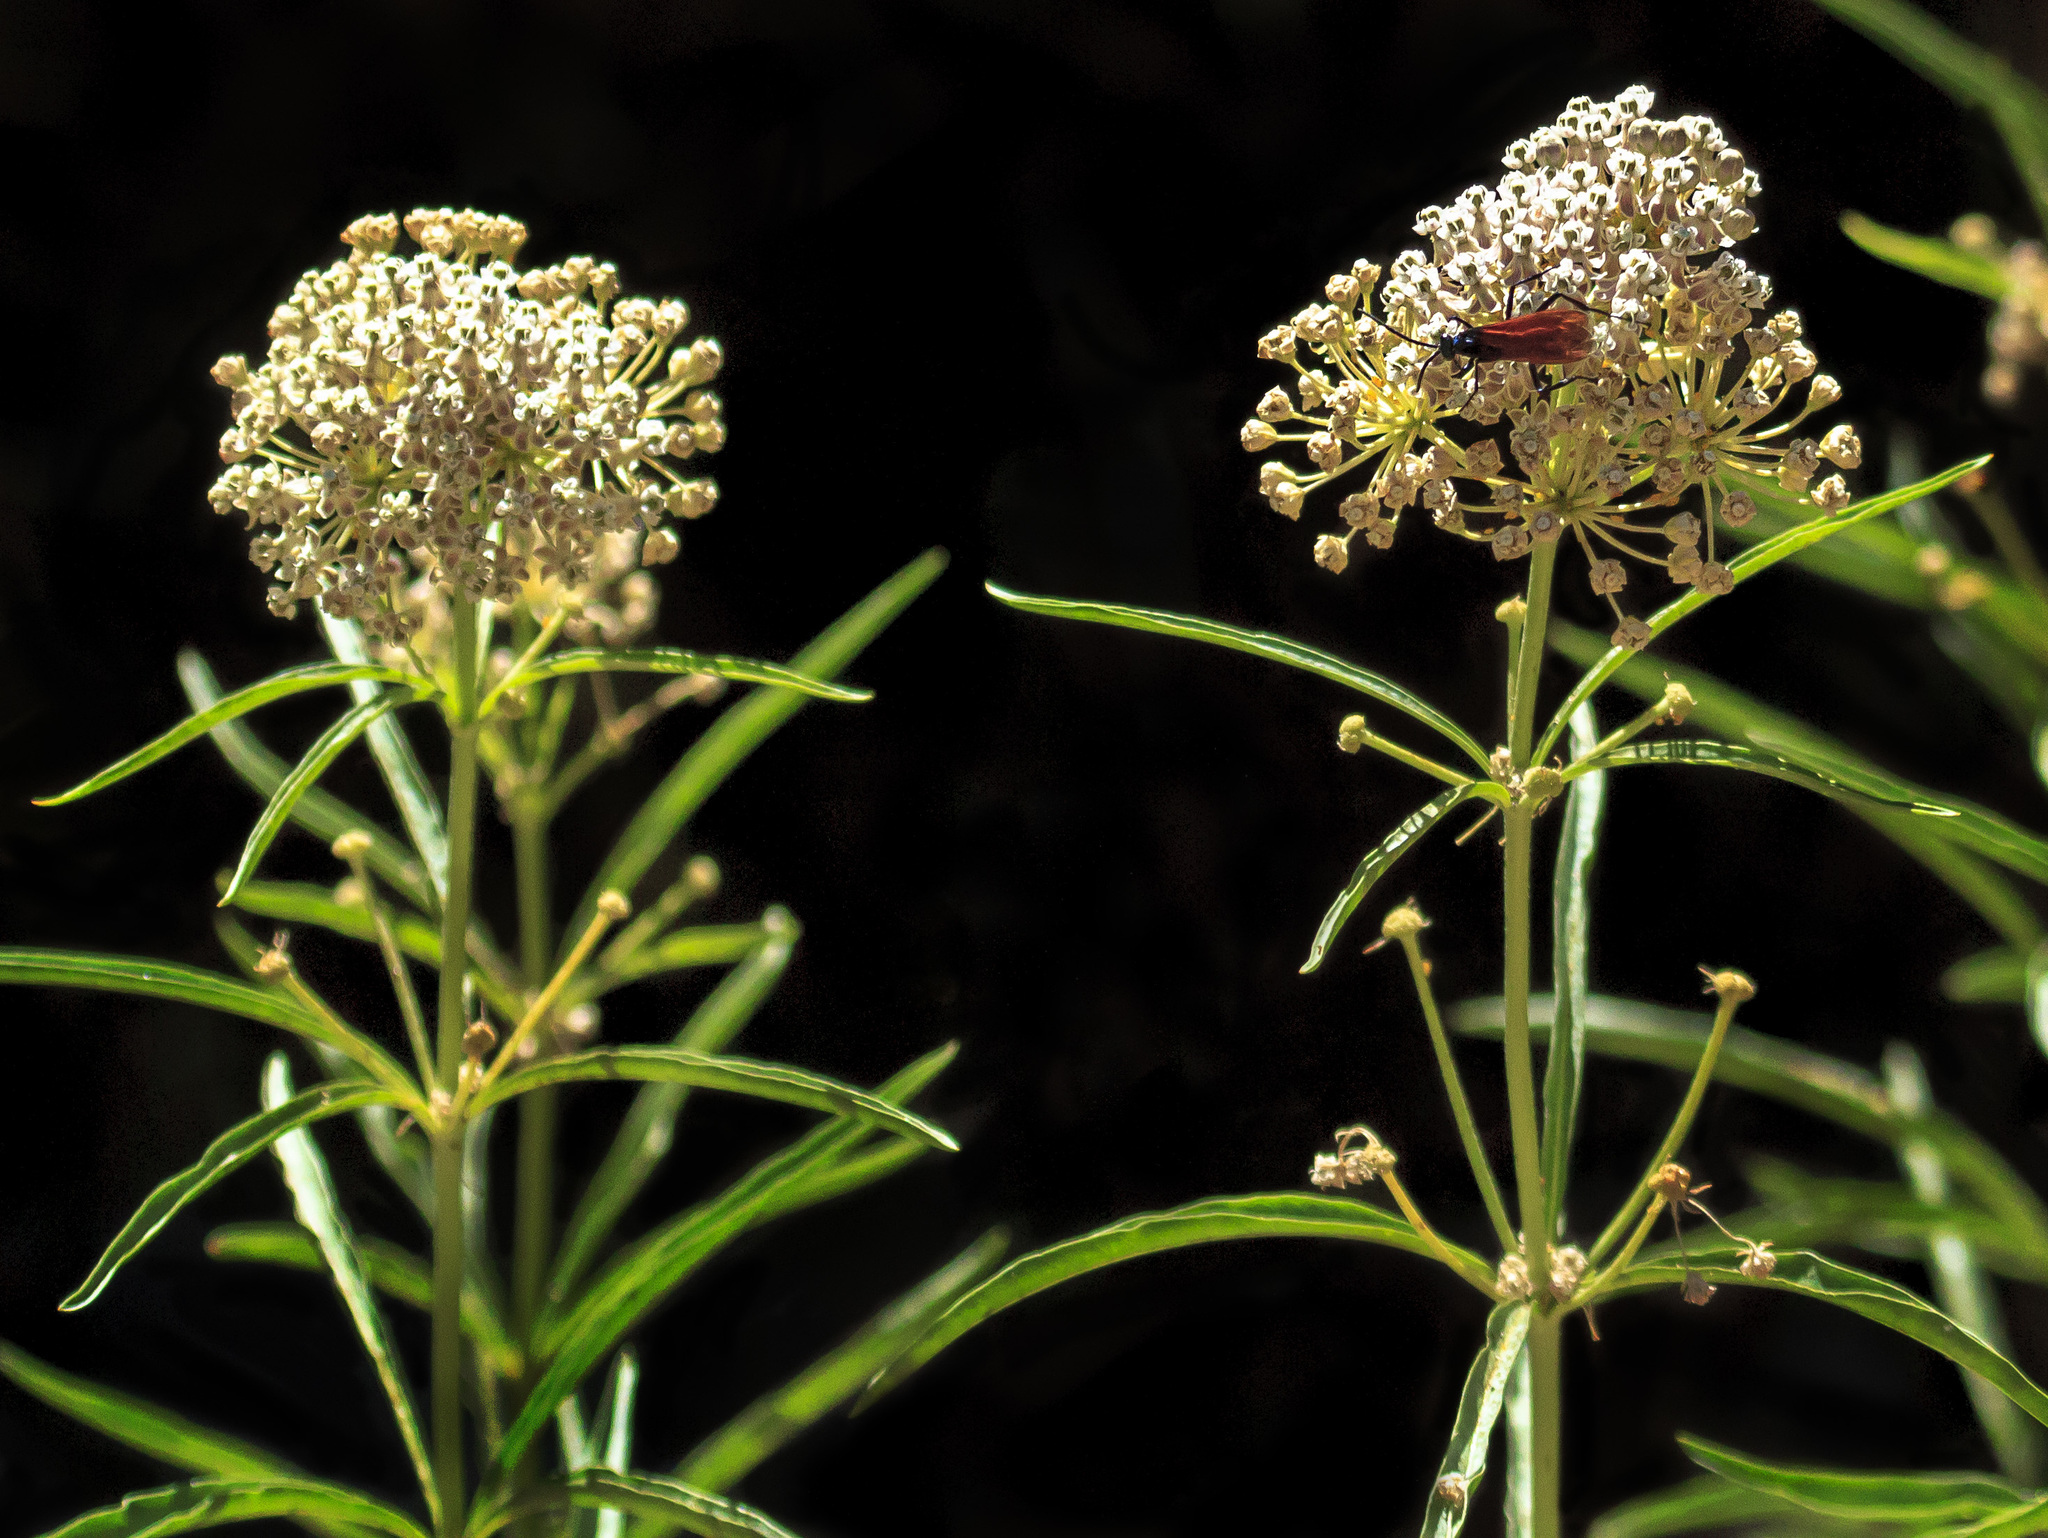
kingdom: Plantae
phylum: Tracheophyta
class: Magnoliopsida
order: Gentianales
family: Apocynaceae
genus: Asclepias
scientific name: Asclepias fascicularis
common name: Mexican milkweed
